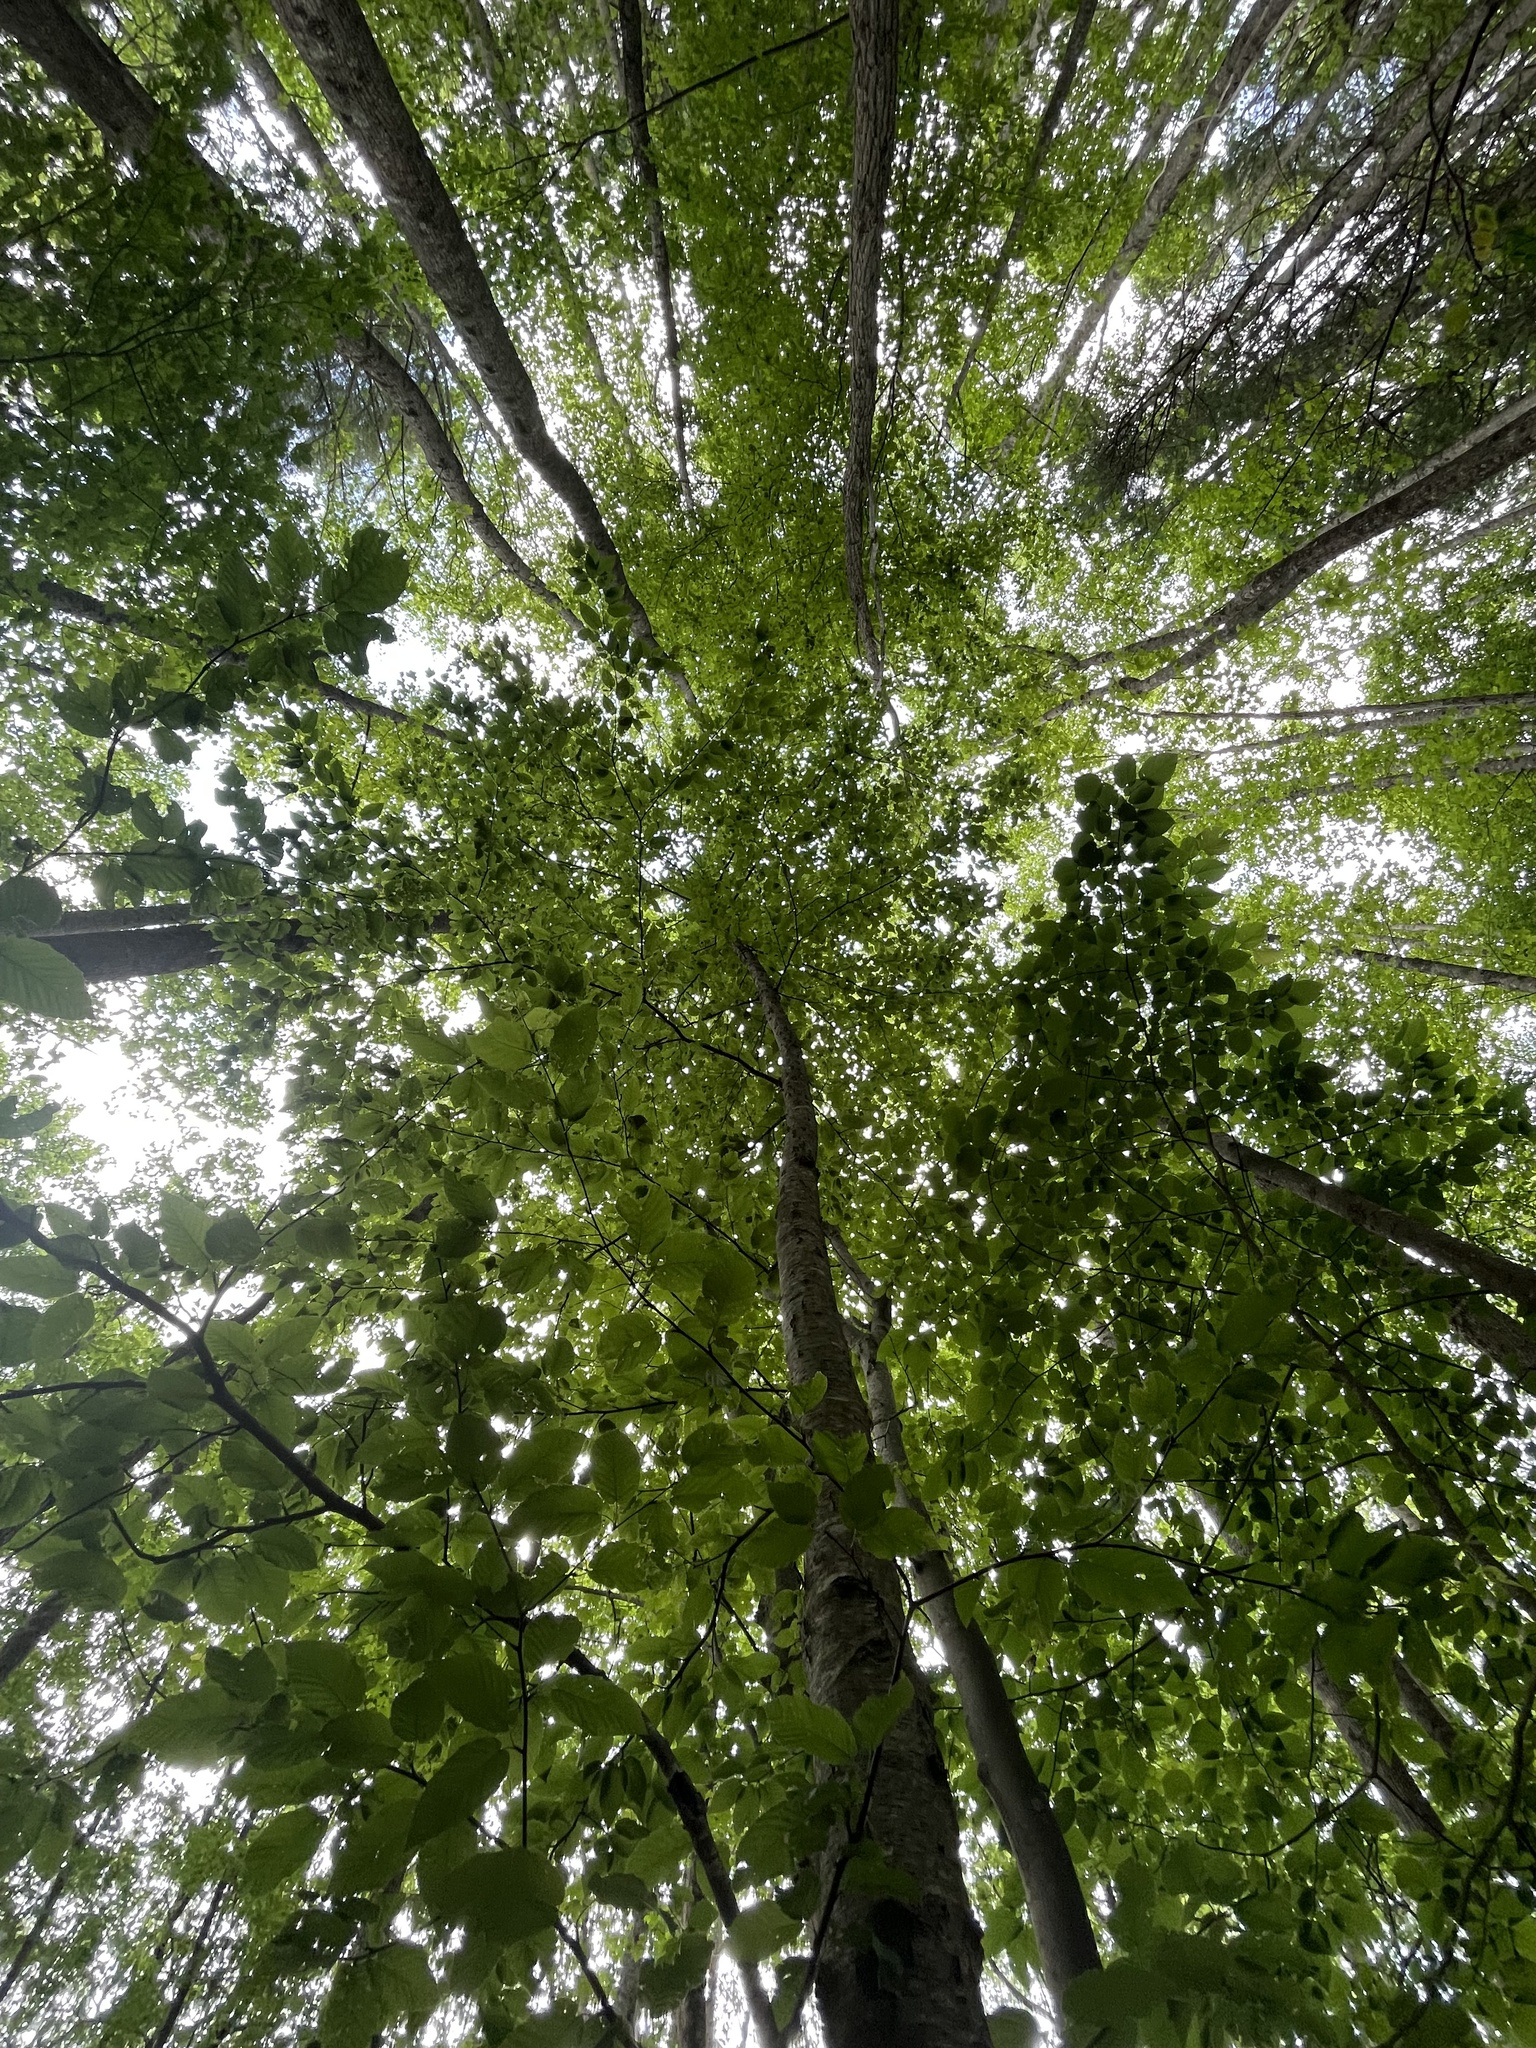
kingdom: Plantae
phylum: Tracheophyta
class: Magnoliopsida
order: Malvales
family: Malvaceae
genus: Tilia
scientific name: Tilia americana
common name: Basswood
